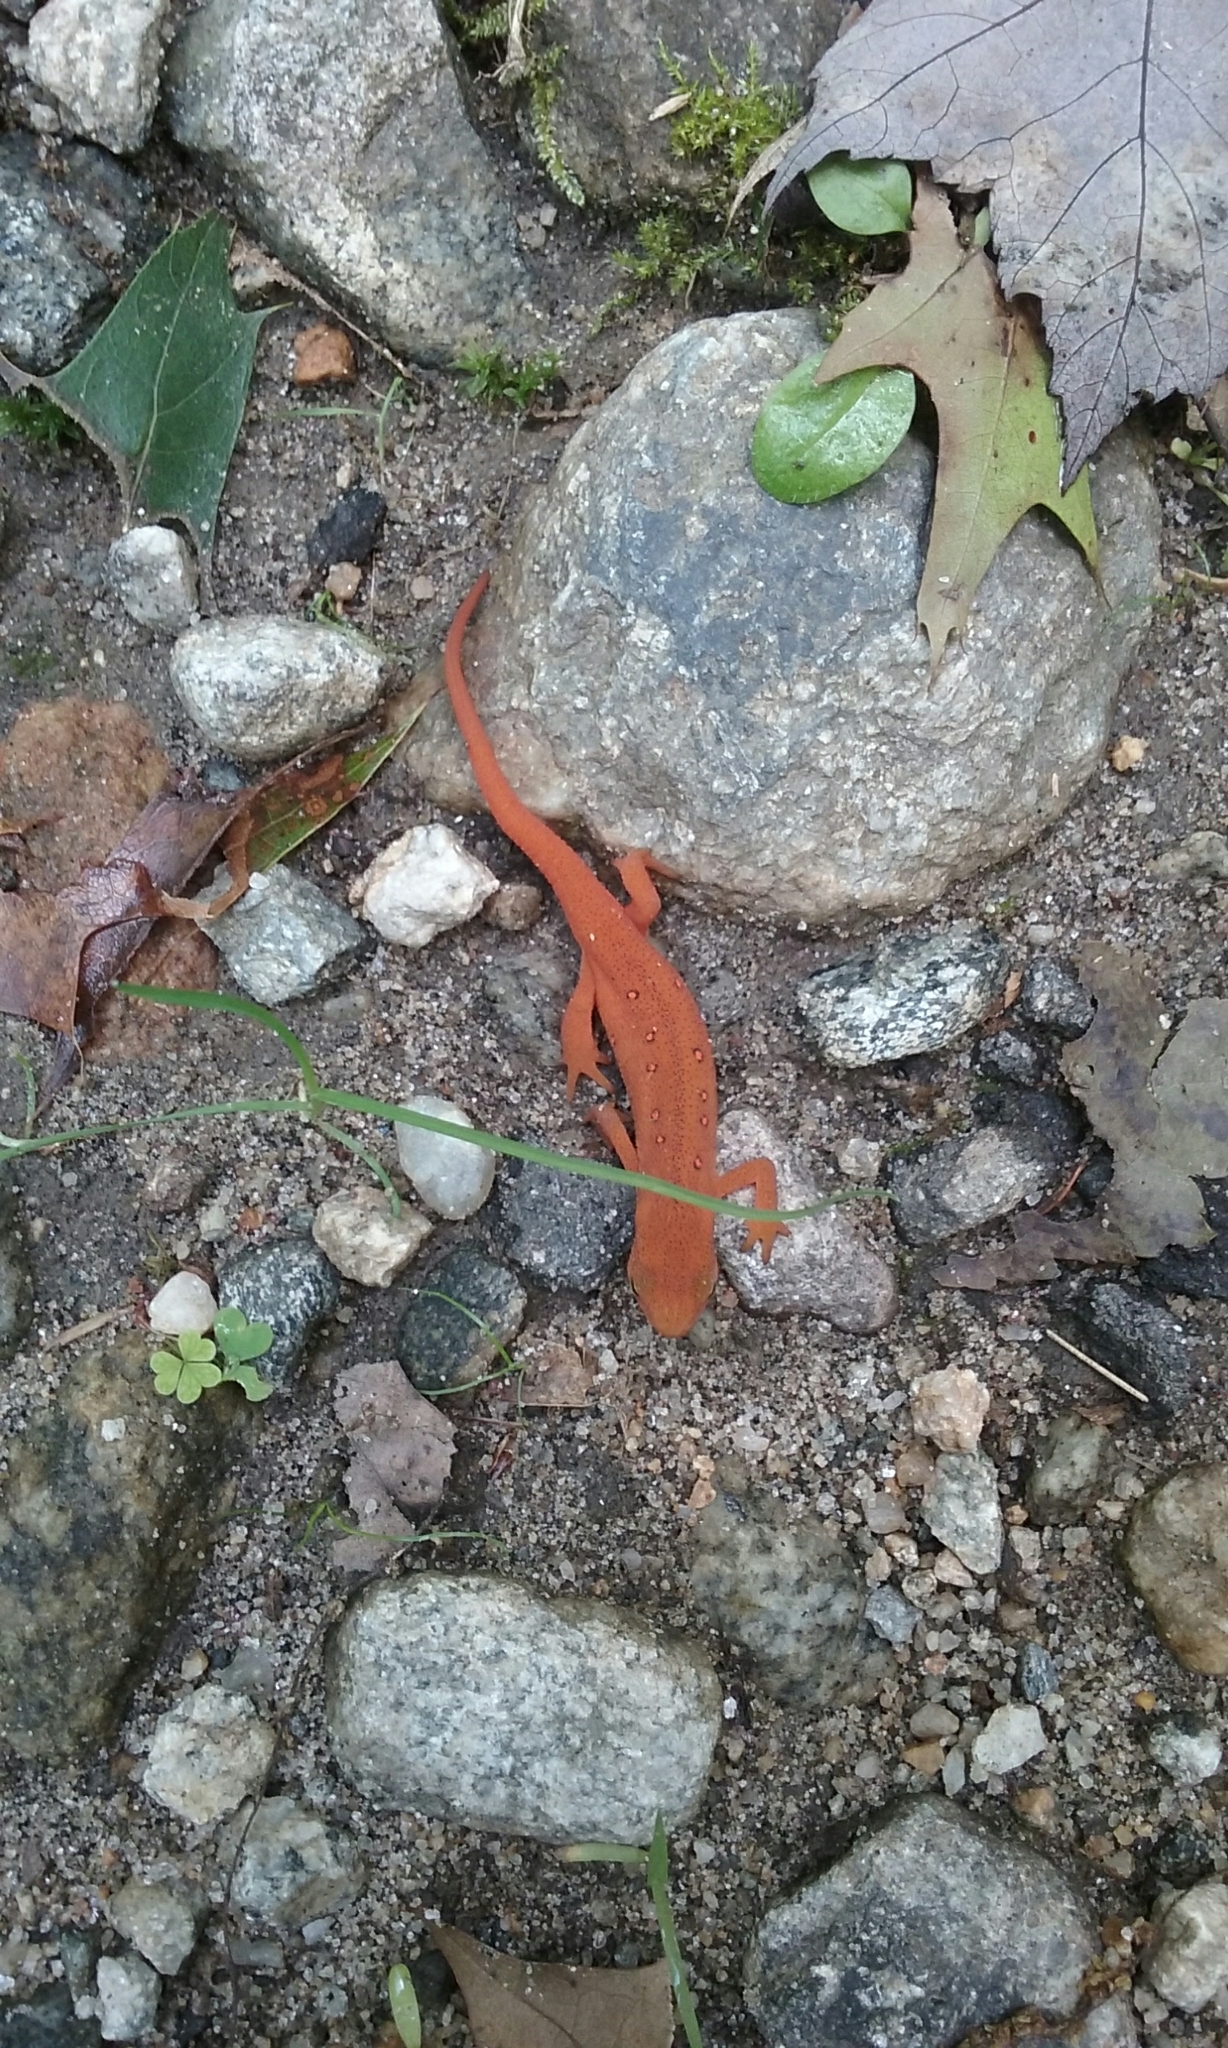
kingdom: Animalia
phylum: Chordata
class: Amphibia
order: Caudata
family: Salamandridae
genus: Notophthalmus
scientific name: Notophthalmus viridescens
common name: Eastern newt
